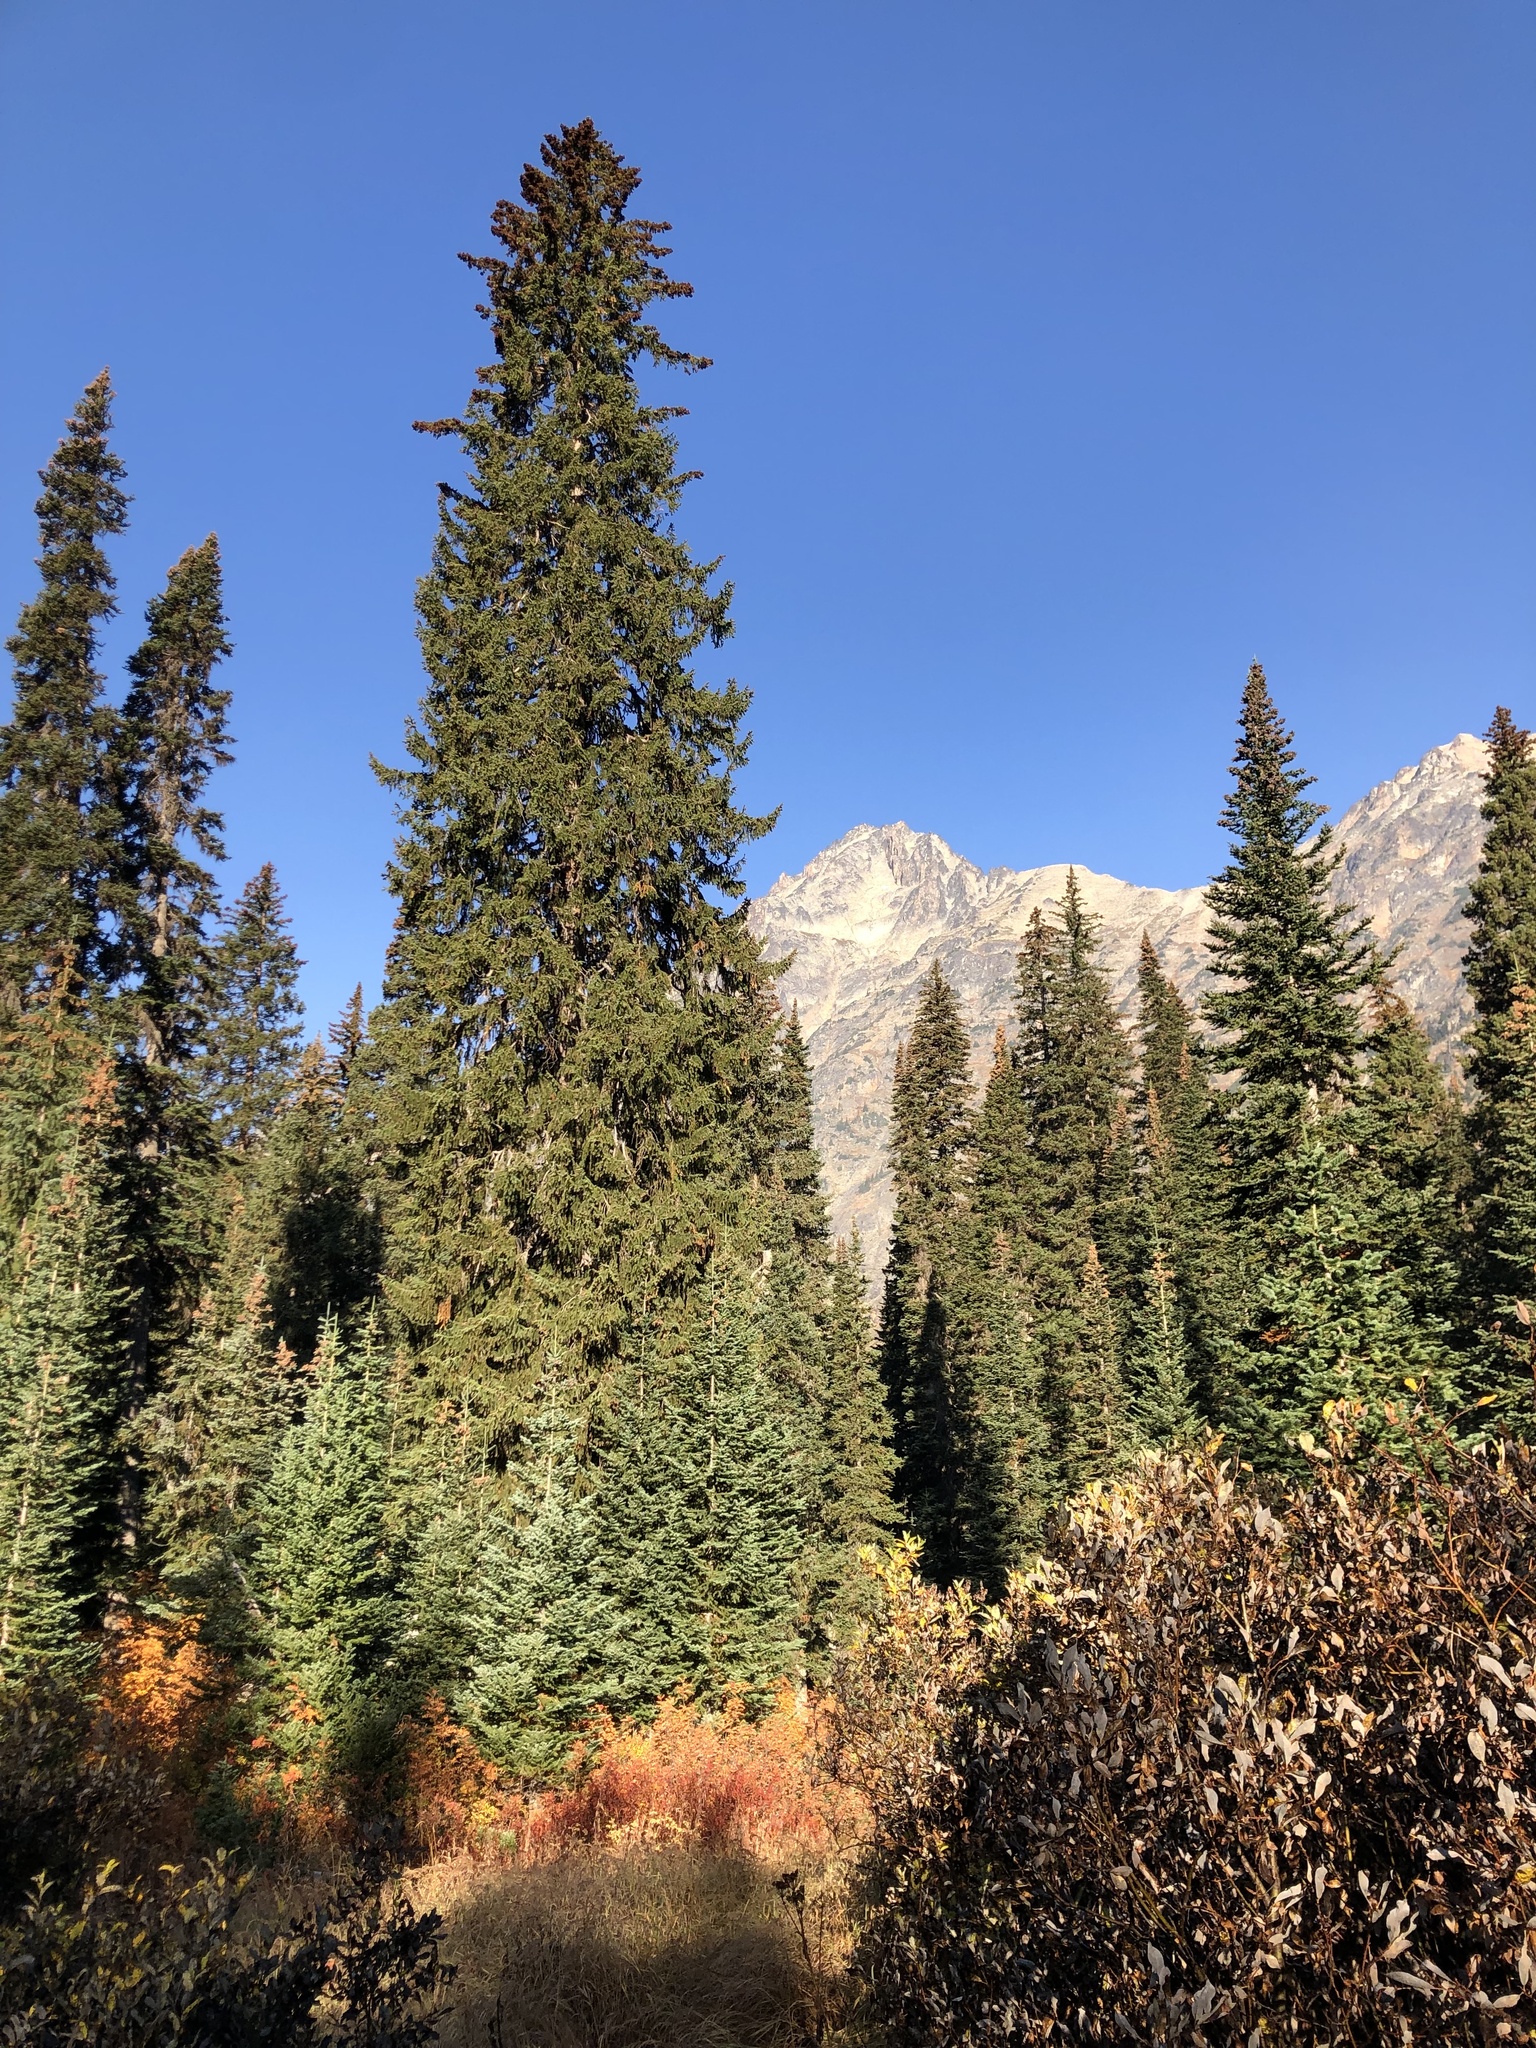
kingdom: Plantae
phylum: Tracheophyta
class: Pinopsida
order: Pinales
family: Pinaceae
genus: Picea
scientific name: Picea engelmannii
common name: Engelmann spruce
